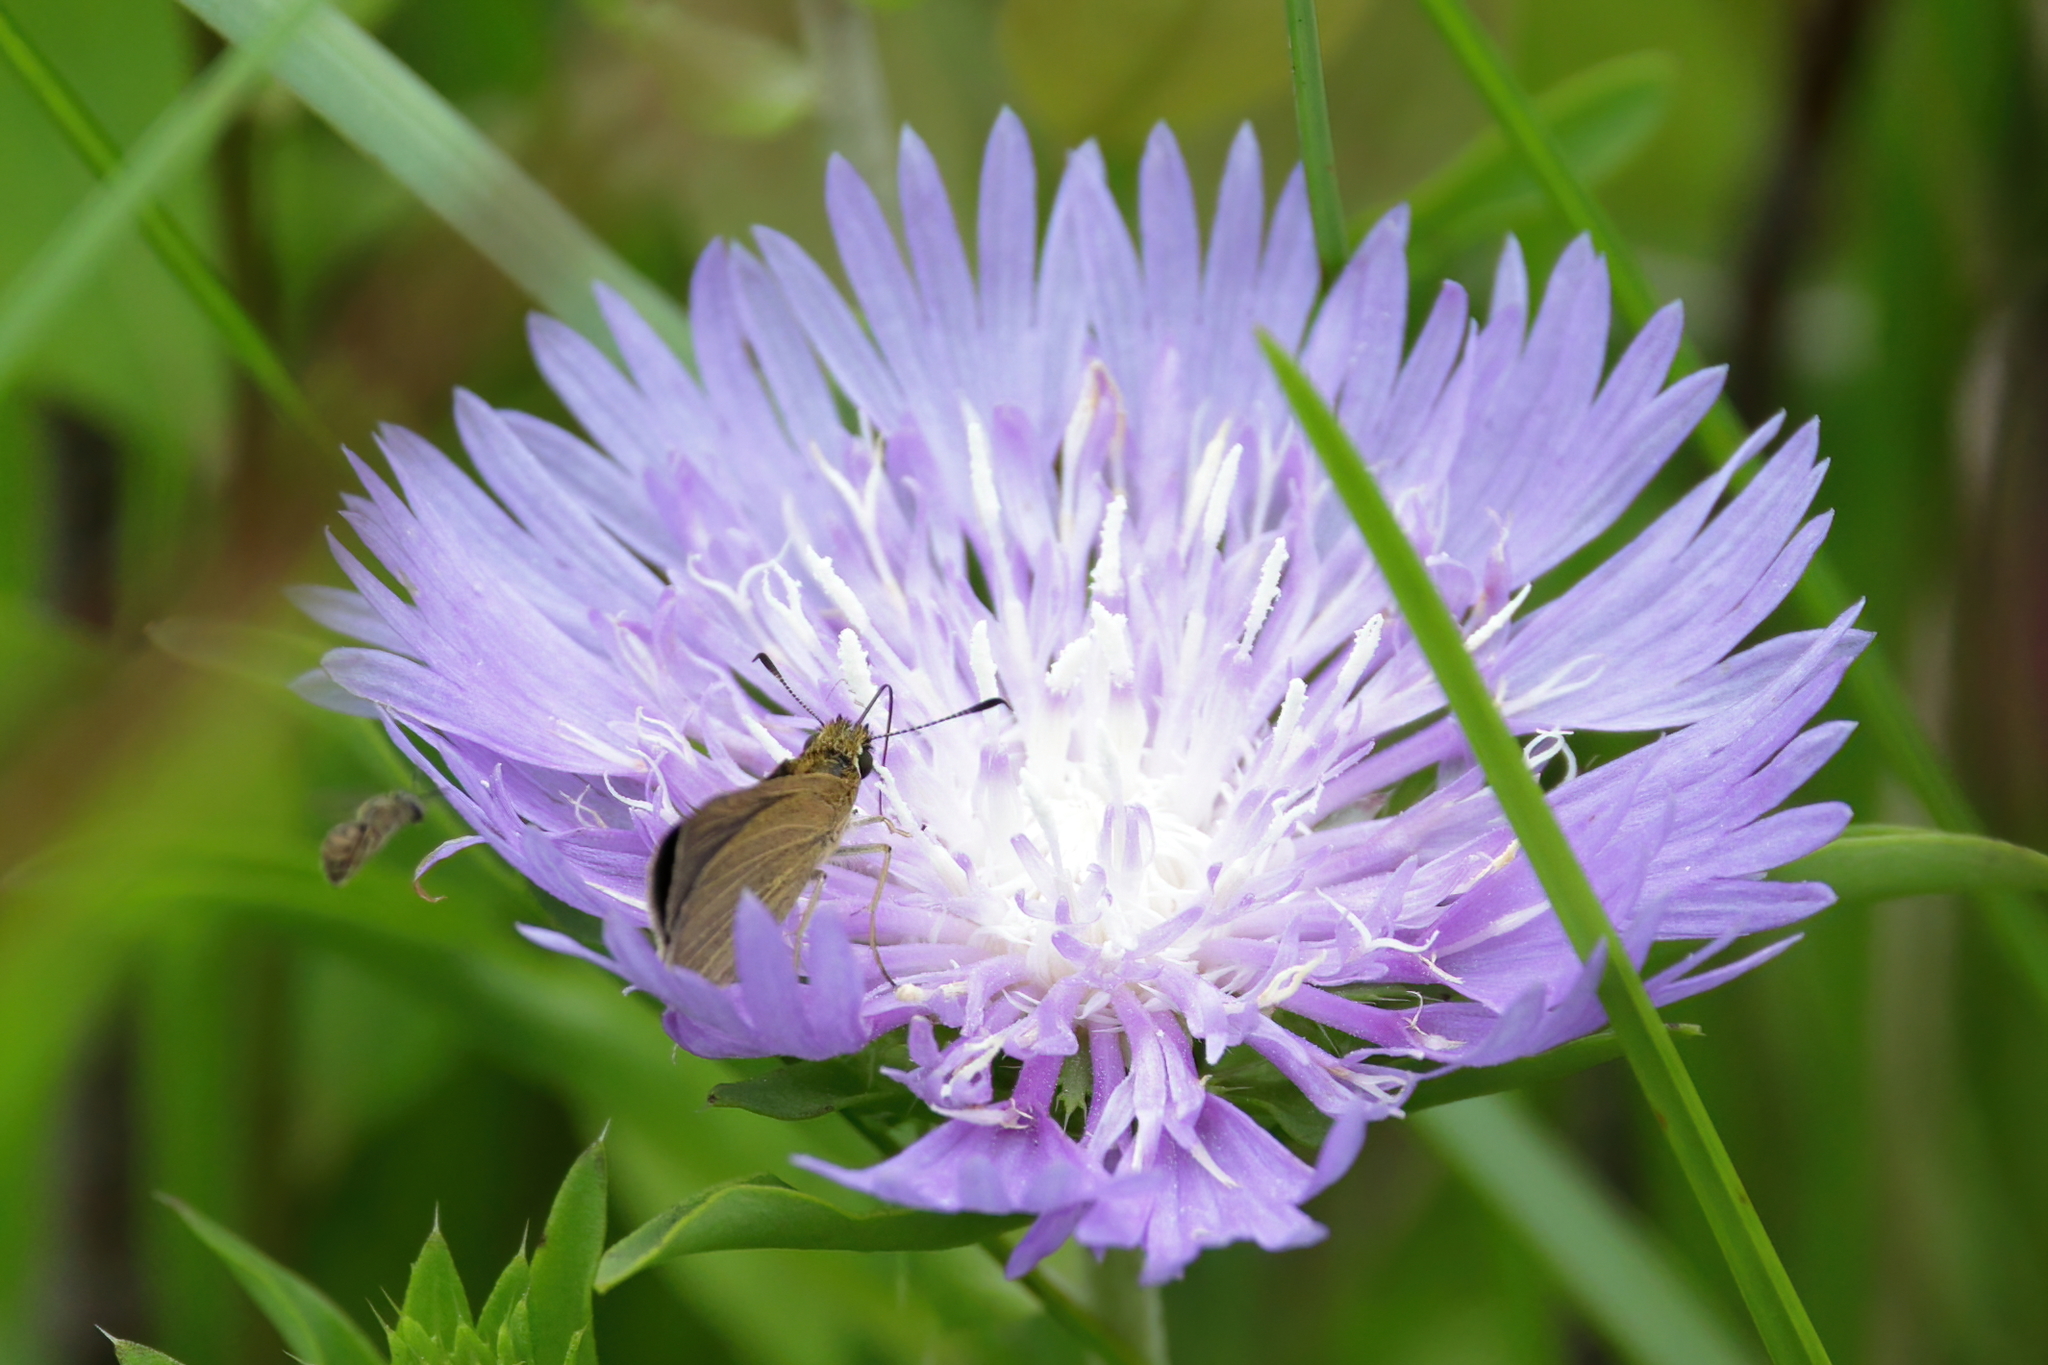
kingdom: Animalia
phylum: Arthropoda
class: Insecta
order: Lepidoptera
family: Hesperiidae
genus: Nastra
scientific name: Nastra lherminier
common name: Swarthy skipper
